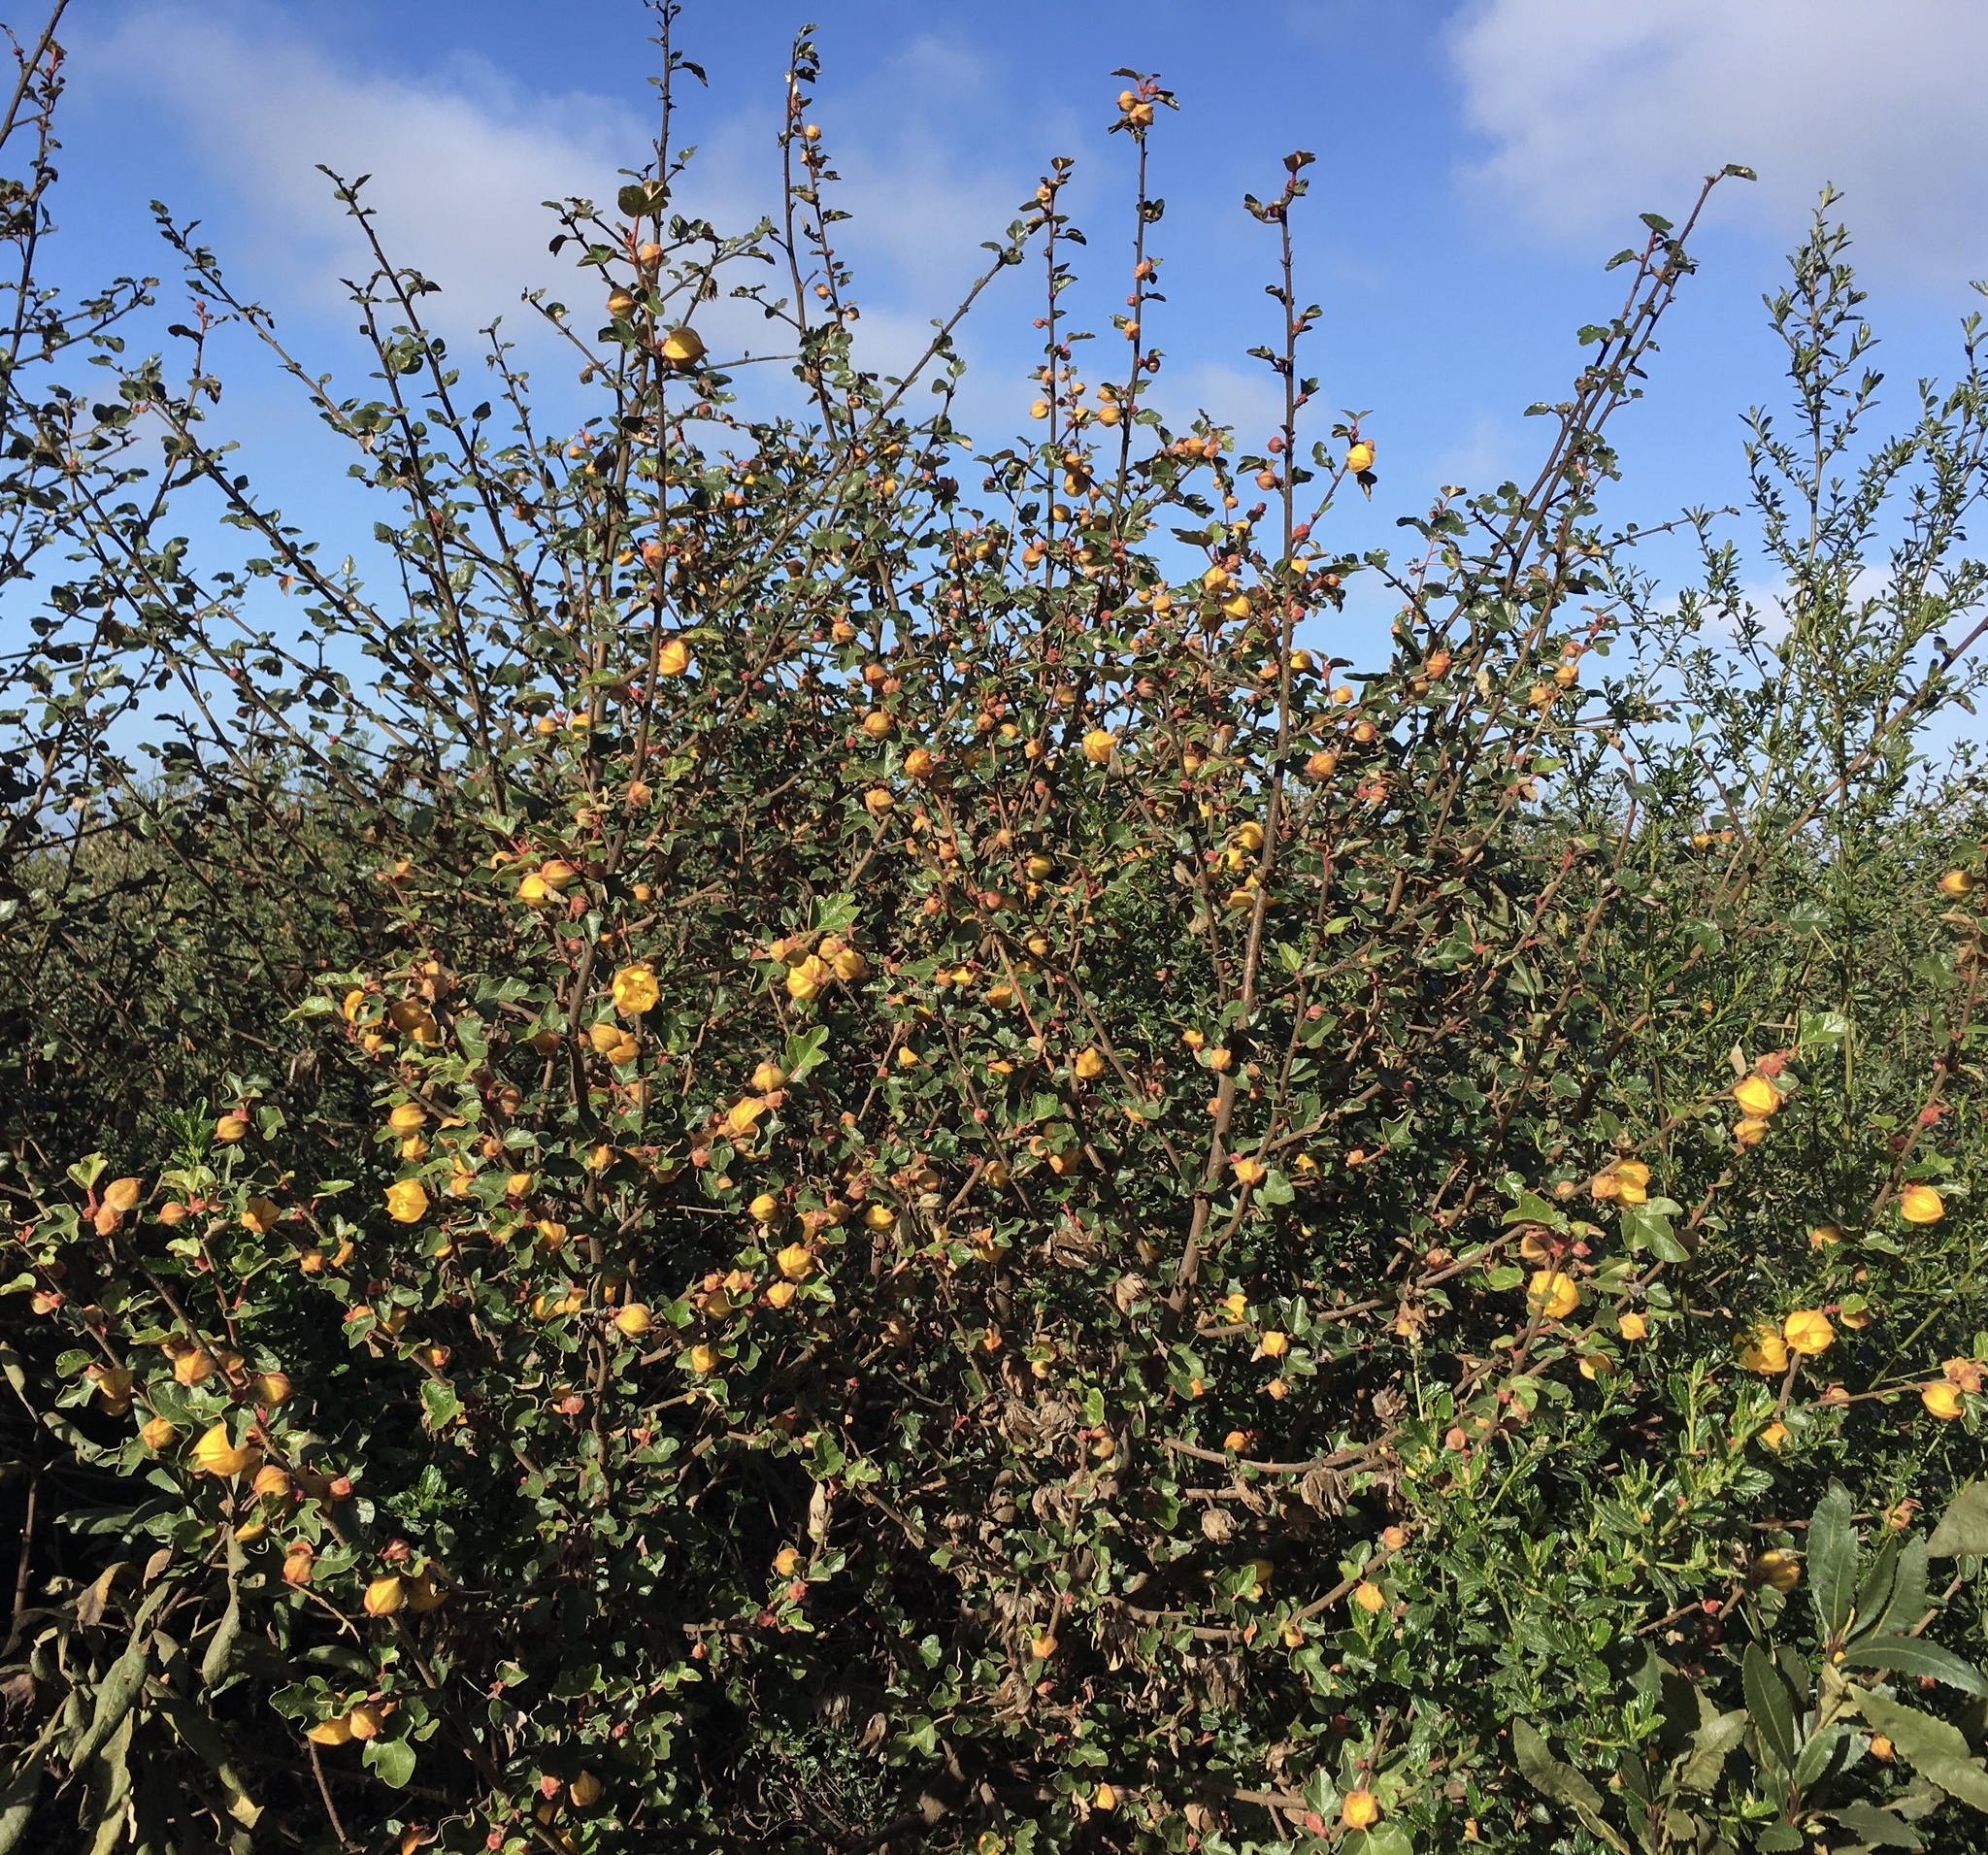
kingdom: Plantae
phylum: Tracheophyta
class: Magnoliopsida
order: Malvales
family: Malvaceae
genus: Fremontodendron
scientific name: Fremontodendron californicum
